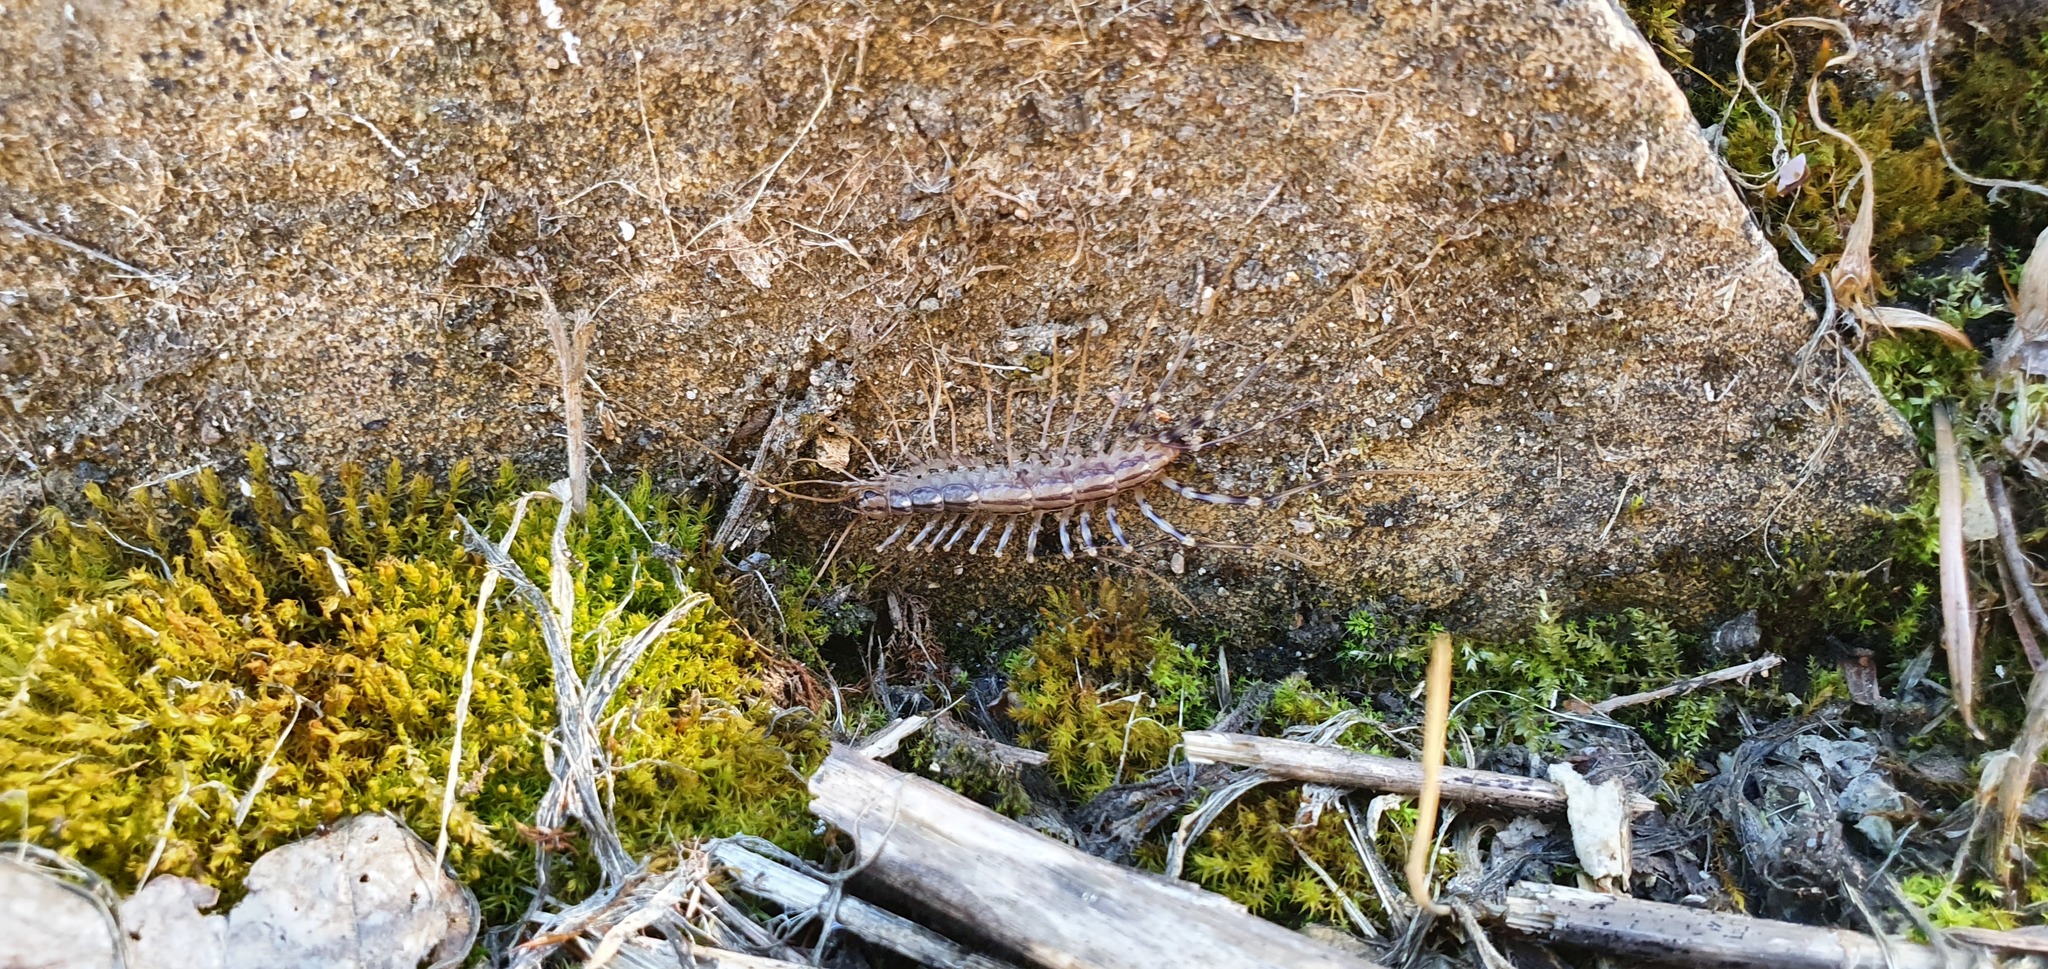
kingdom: Animalia
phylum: Arthropoda
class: Chilopoda
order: Scutigeromorpha
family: Scutigeridae
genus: Scutigera
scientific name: Scutigera coleoptrata
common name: House centipede
